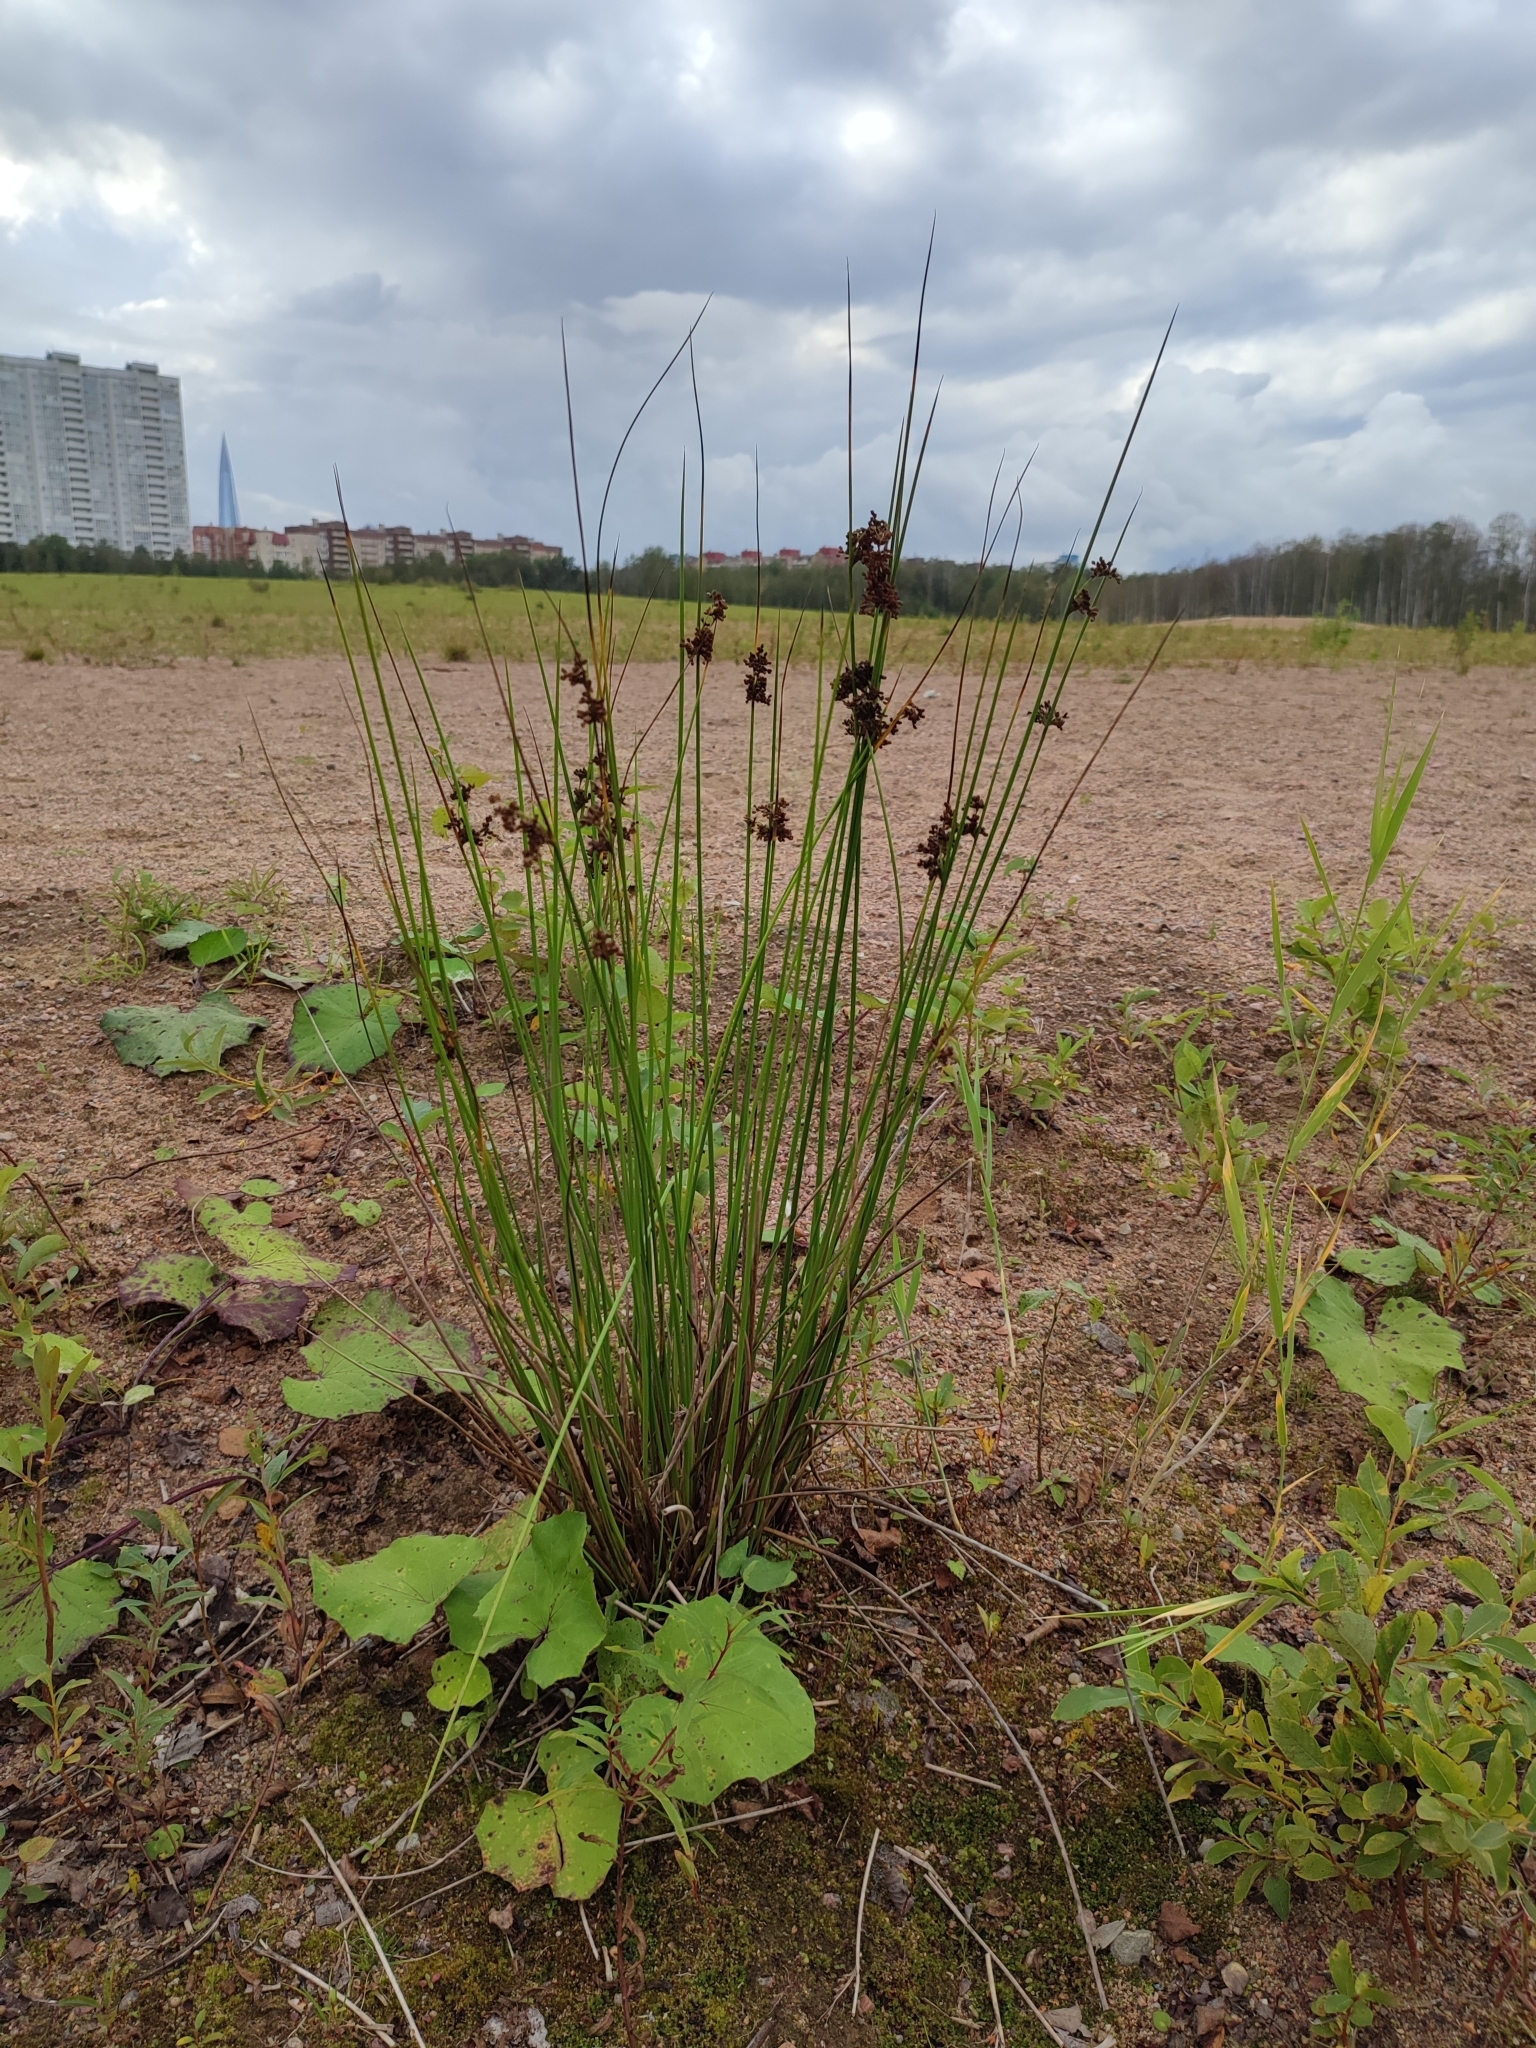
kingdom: Plantae
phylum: Tracheophyta
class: Liliopsida
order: Poales
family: Juncaceae
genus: Juncus
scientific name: Juncus effusus
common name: Soft rush
